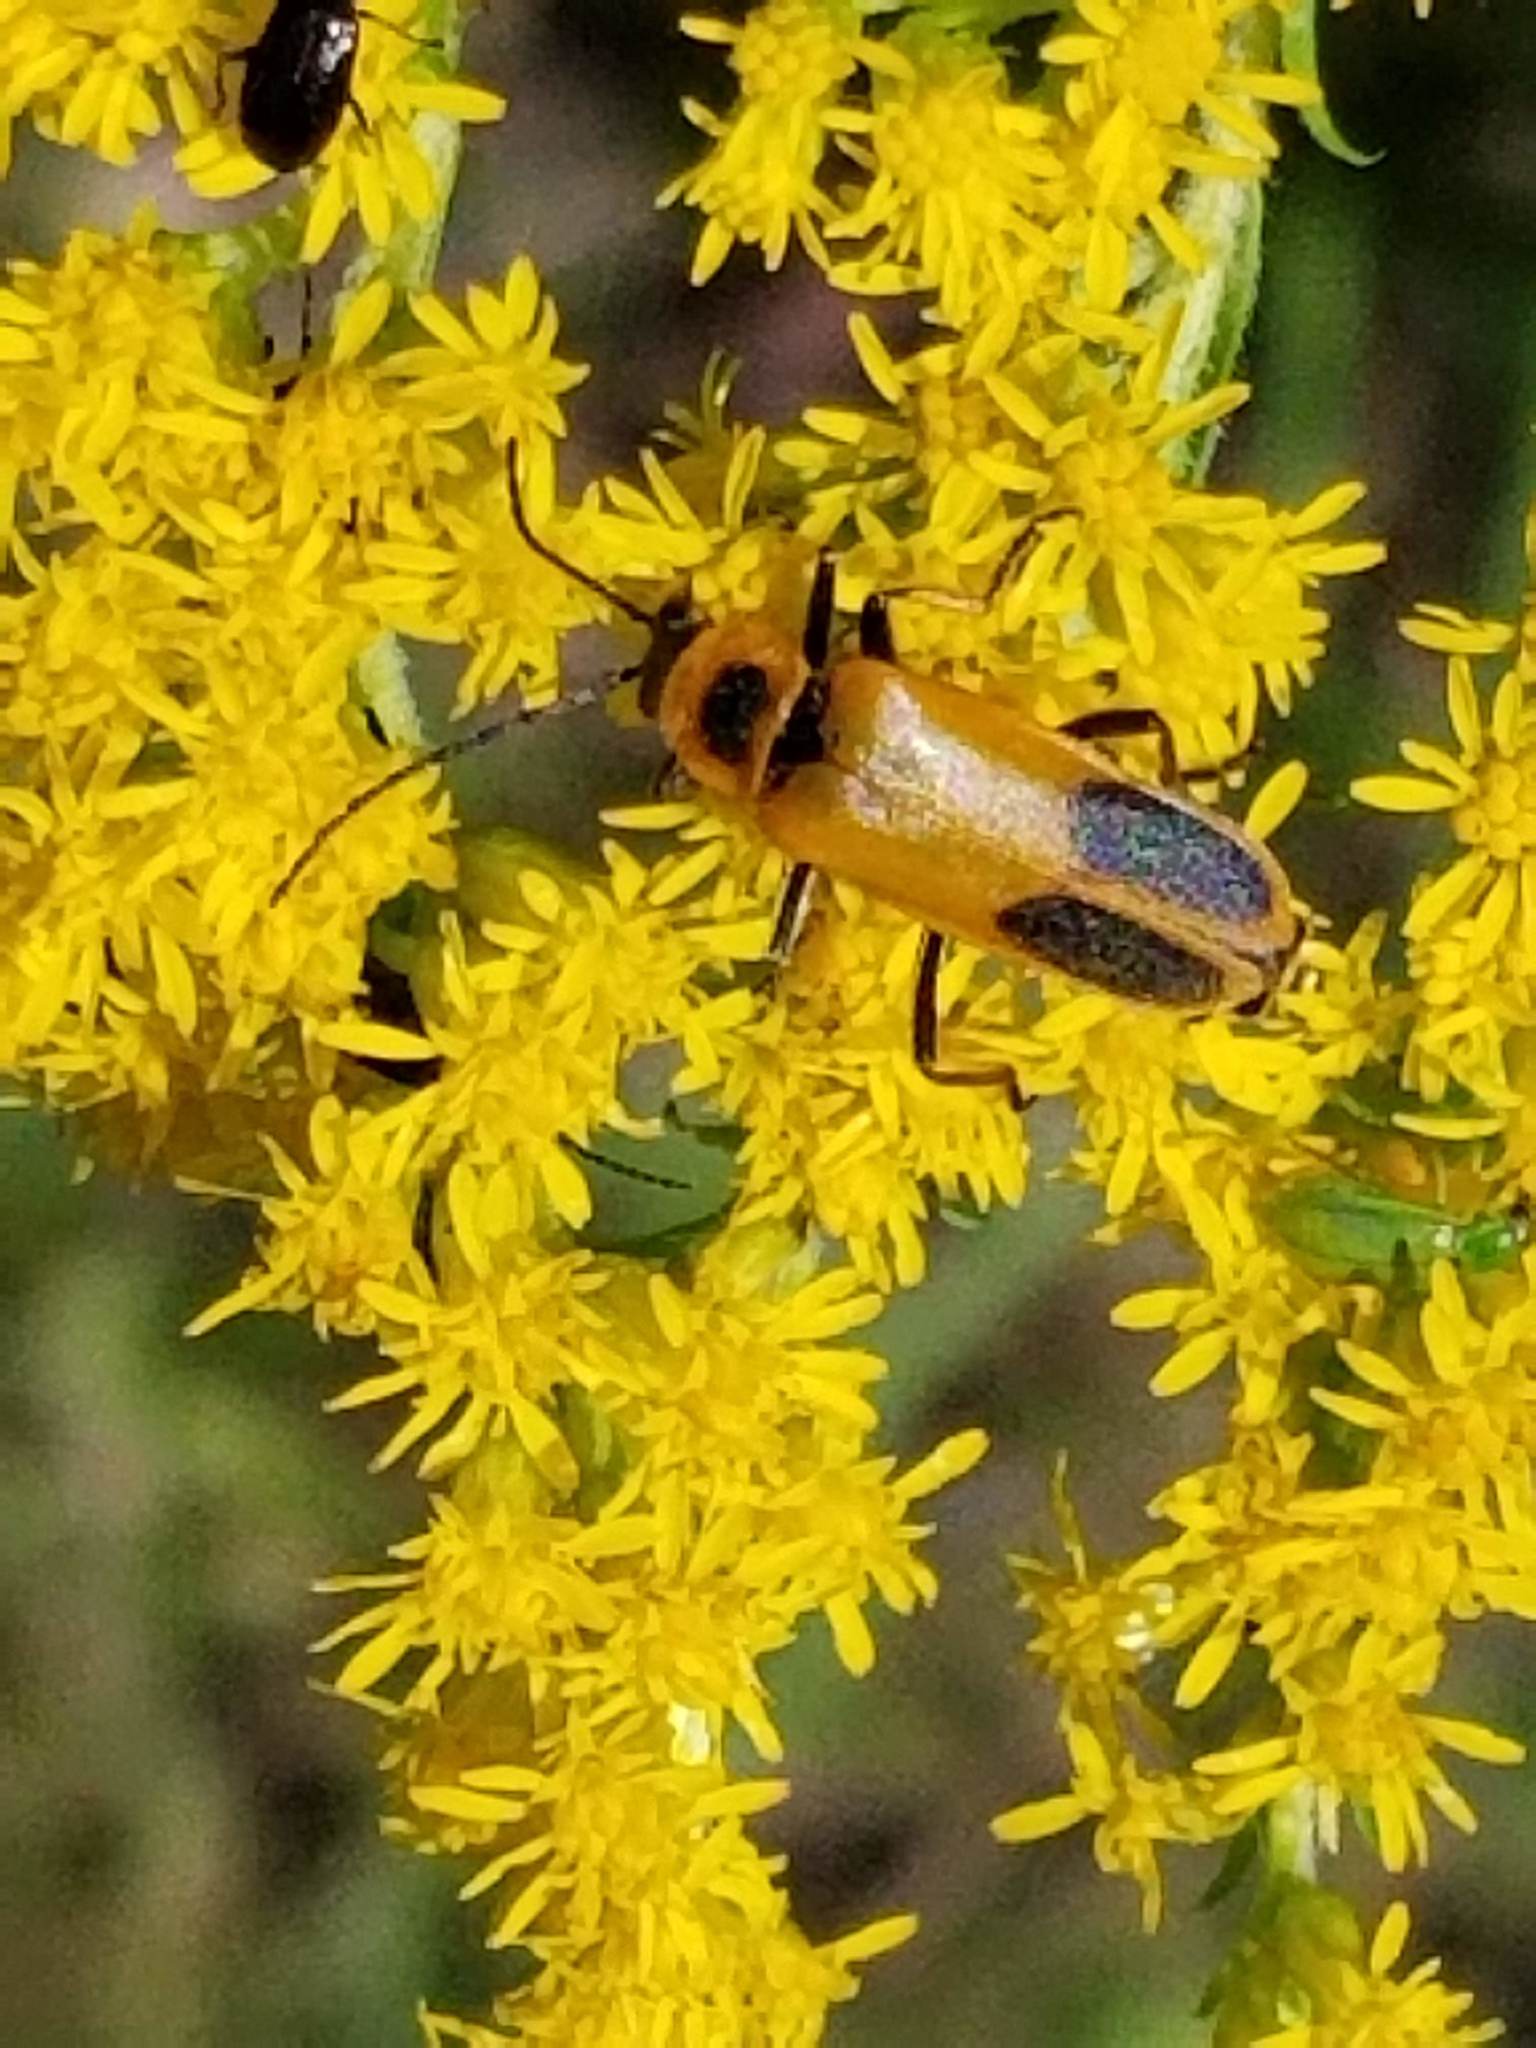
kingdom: Animalia
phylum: Arthropoda
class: Insecta
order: Coleoptera
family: Cantharidae
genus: Chauliognathus
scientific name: Chauliognathus pensylvanicus
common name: Goldenrod soldier beetle
